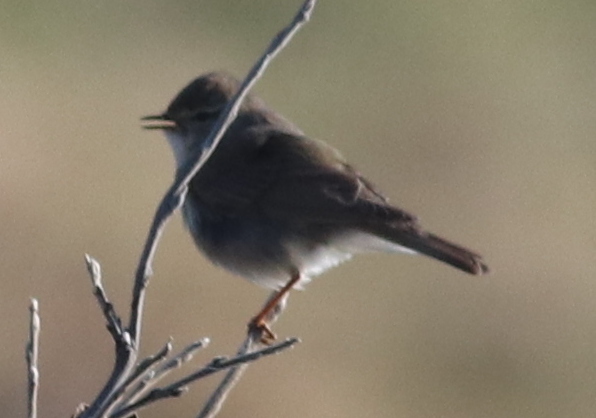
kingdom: Animalia
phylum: Chordata
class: Aves
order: Passeriformes
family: Phylloscopidae
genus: Phylloscopus
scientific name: Phylloscopus trochilus
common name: Willow warbler
